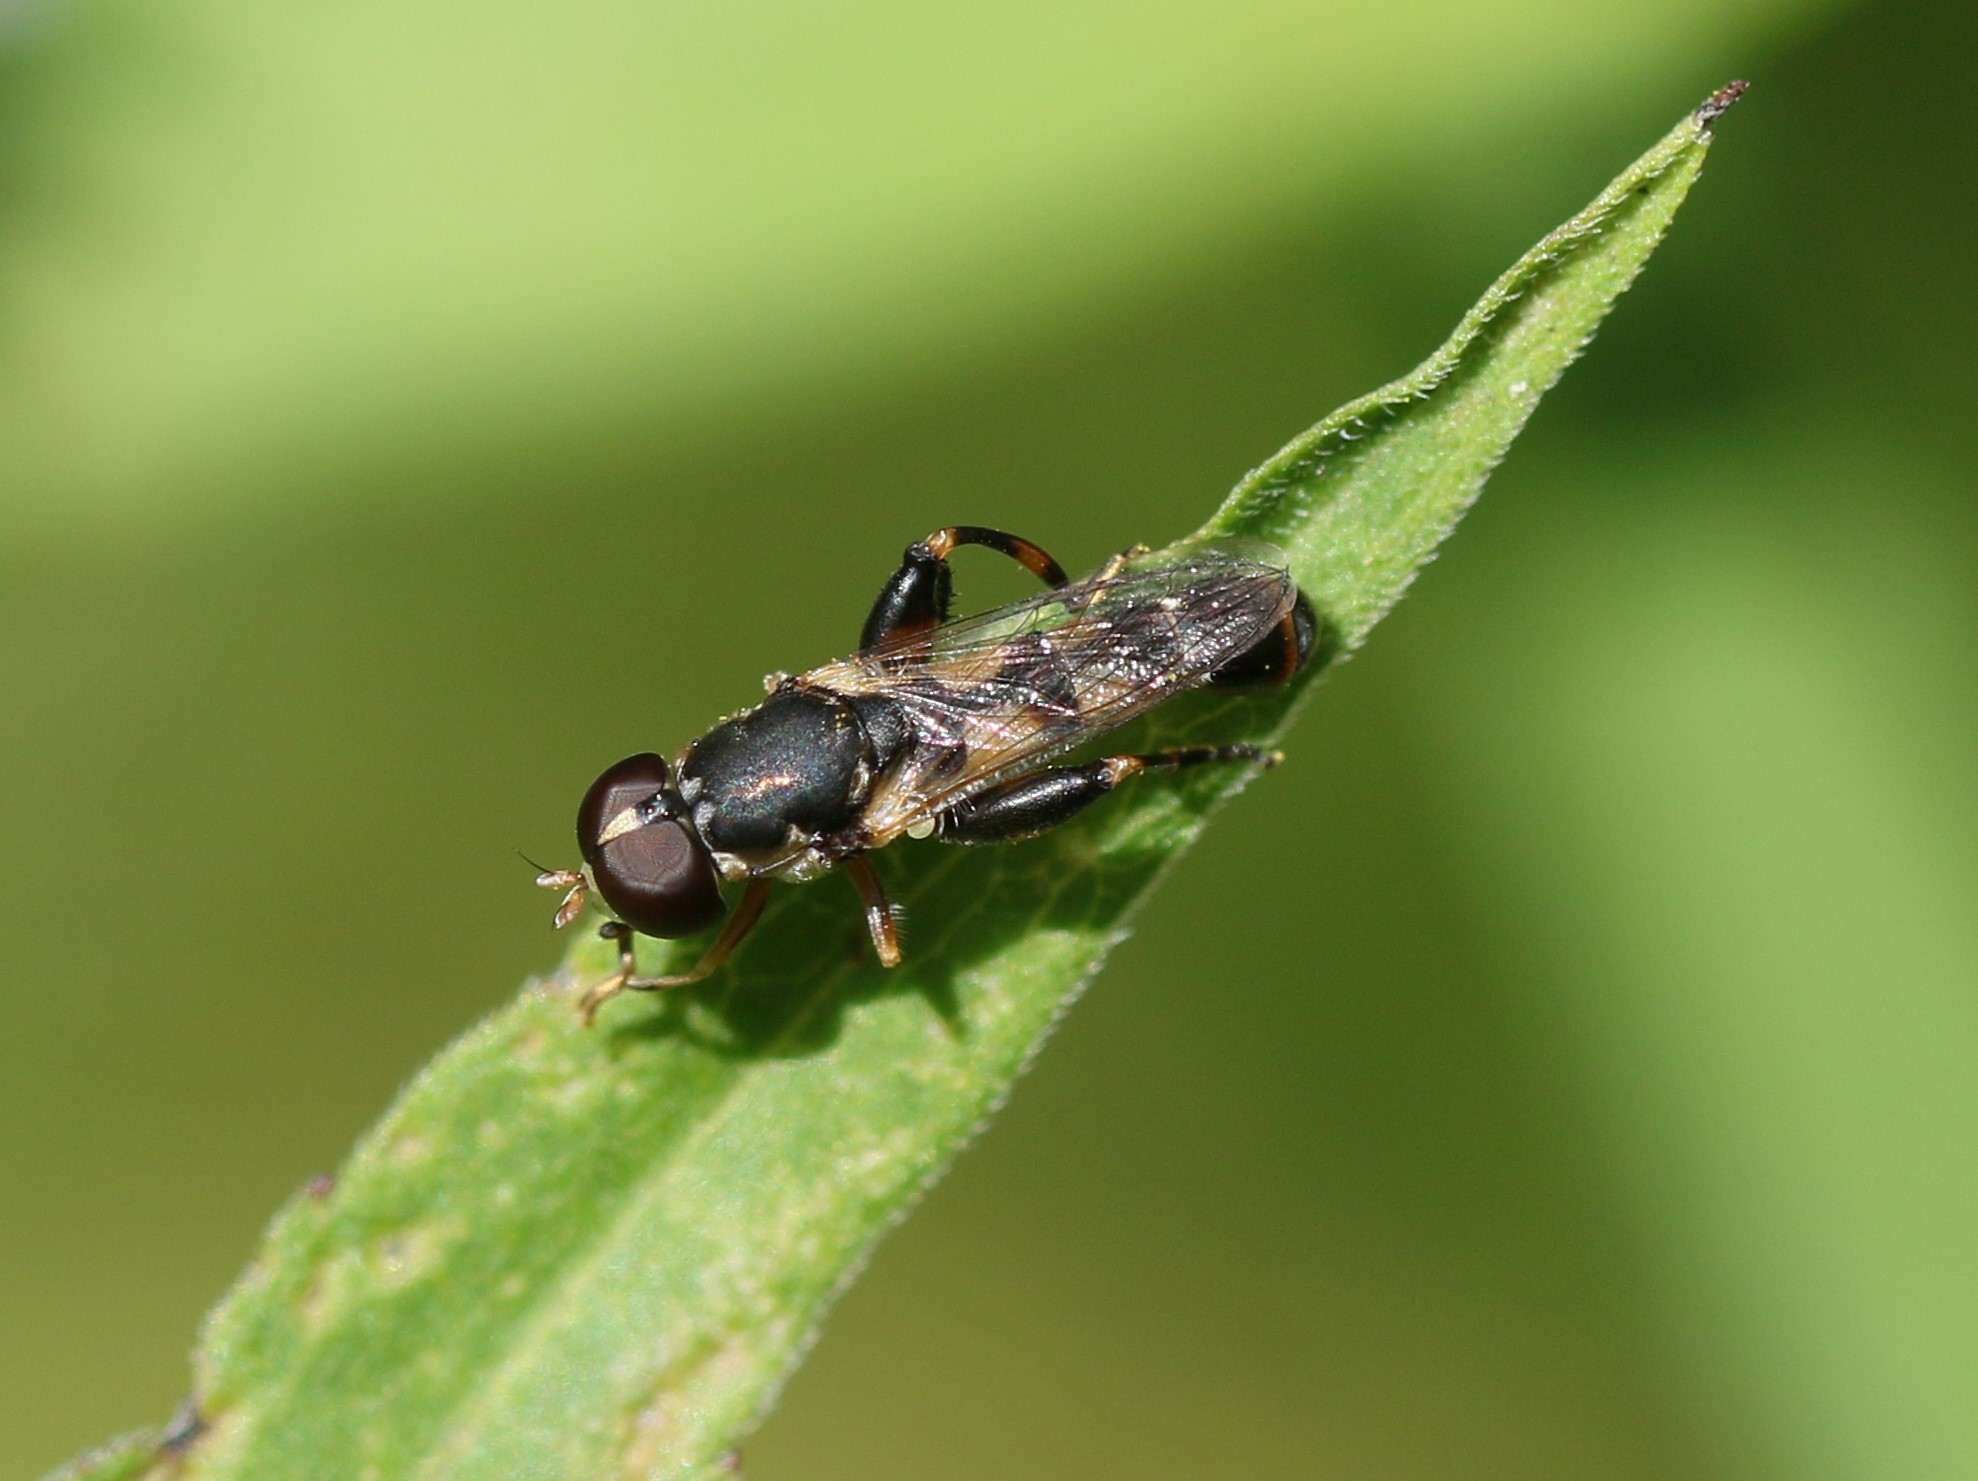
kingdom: Animalia
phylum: Arthropoda
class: Insecta
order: Diptera
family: Syrphidae
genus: Syritta
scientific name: Syritta pipiens
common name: Hover fly
